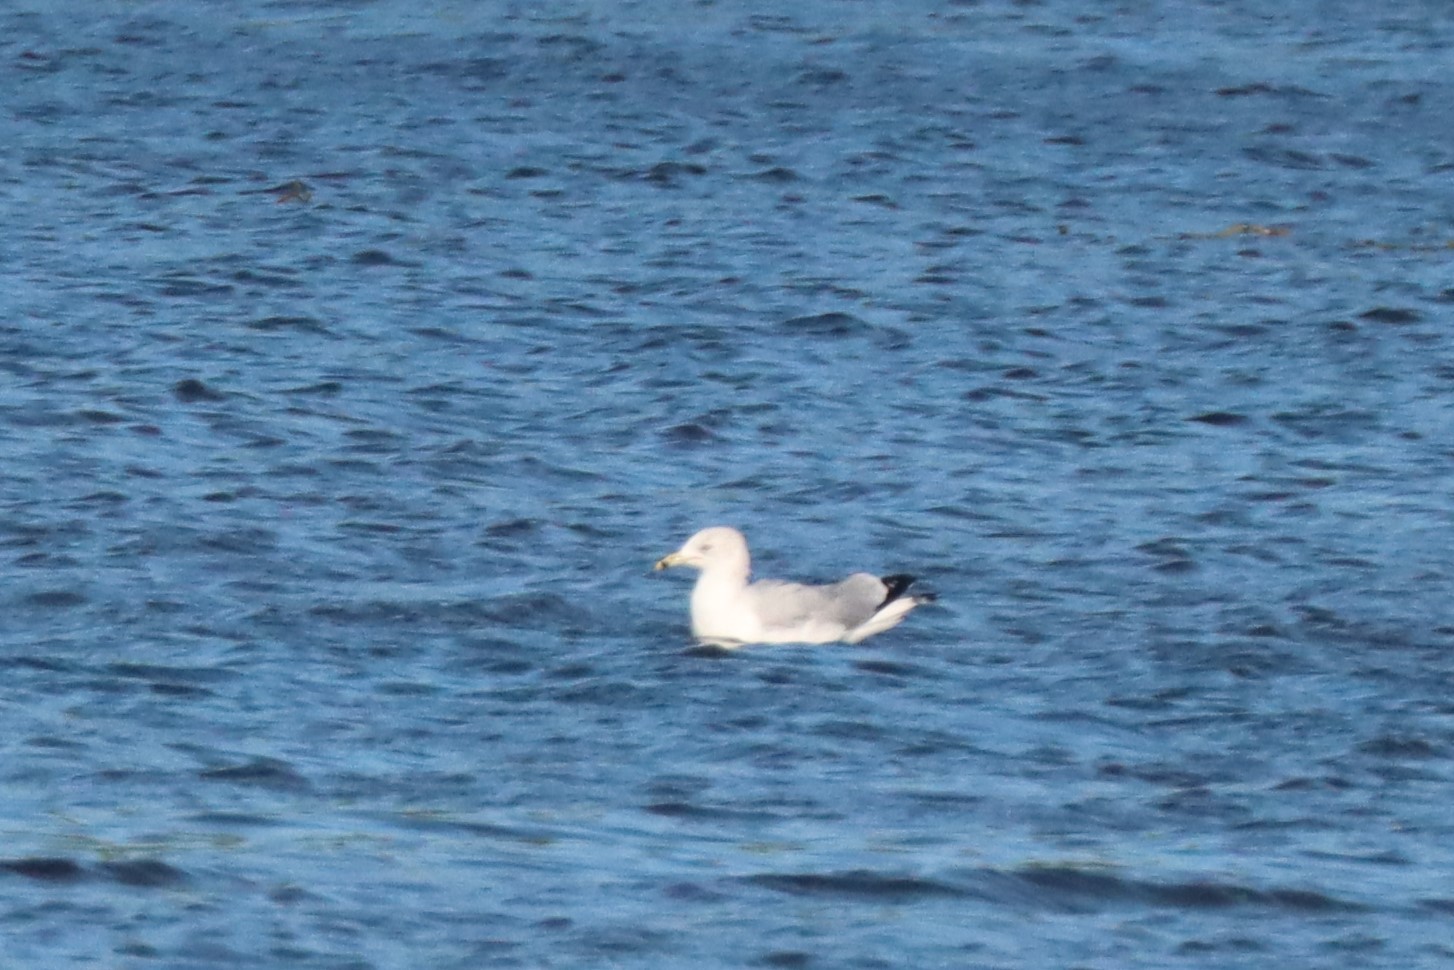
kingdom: Animalia
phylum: Chordata
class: Aves
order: Charadriiformes
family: Laridae
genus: Larus
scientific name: Larus delawarensis
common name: Ring-billed gull
